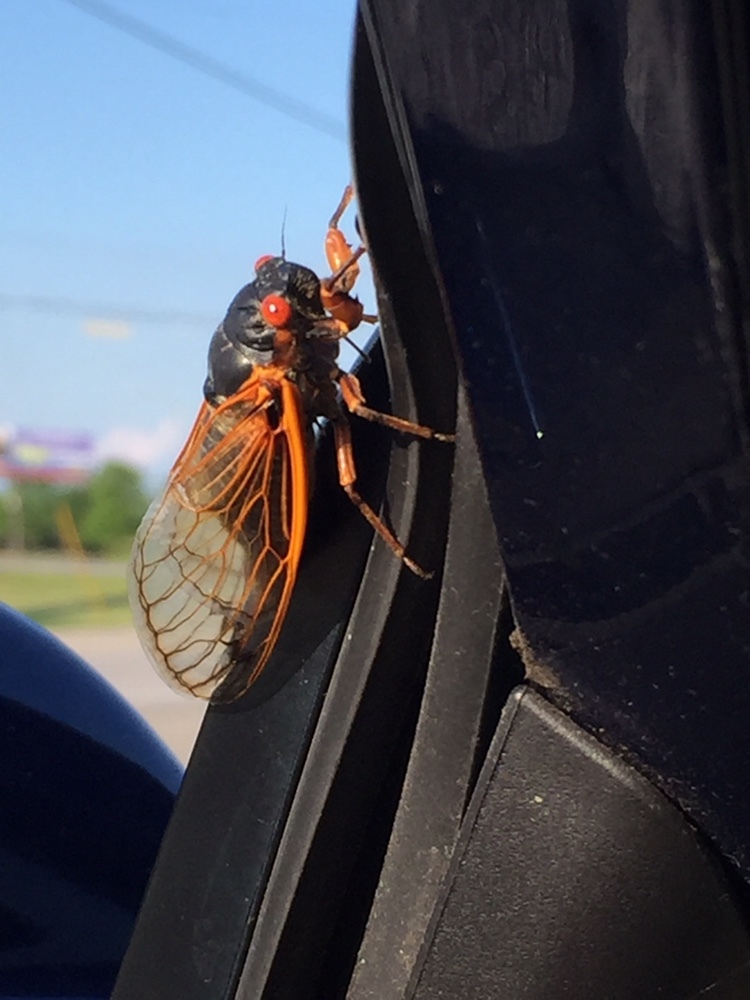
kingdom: Animalia
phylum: Arthropoda
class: Insecta
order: Hemiptera
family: Cicadidae
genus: Magicicada
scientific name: Magicicada septendecim
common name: Periodical cicada
